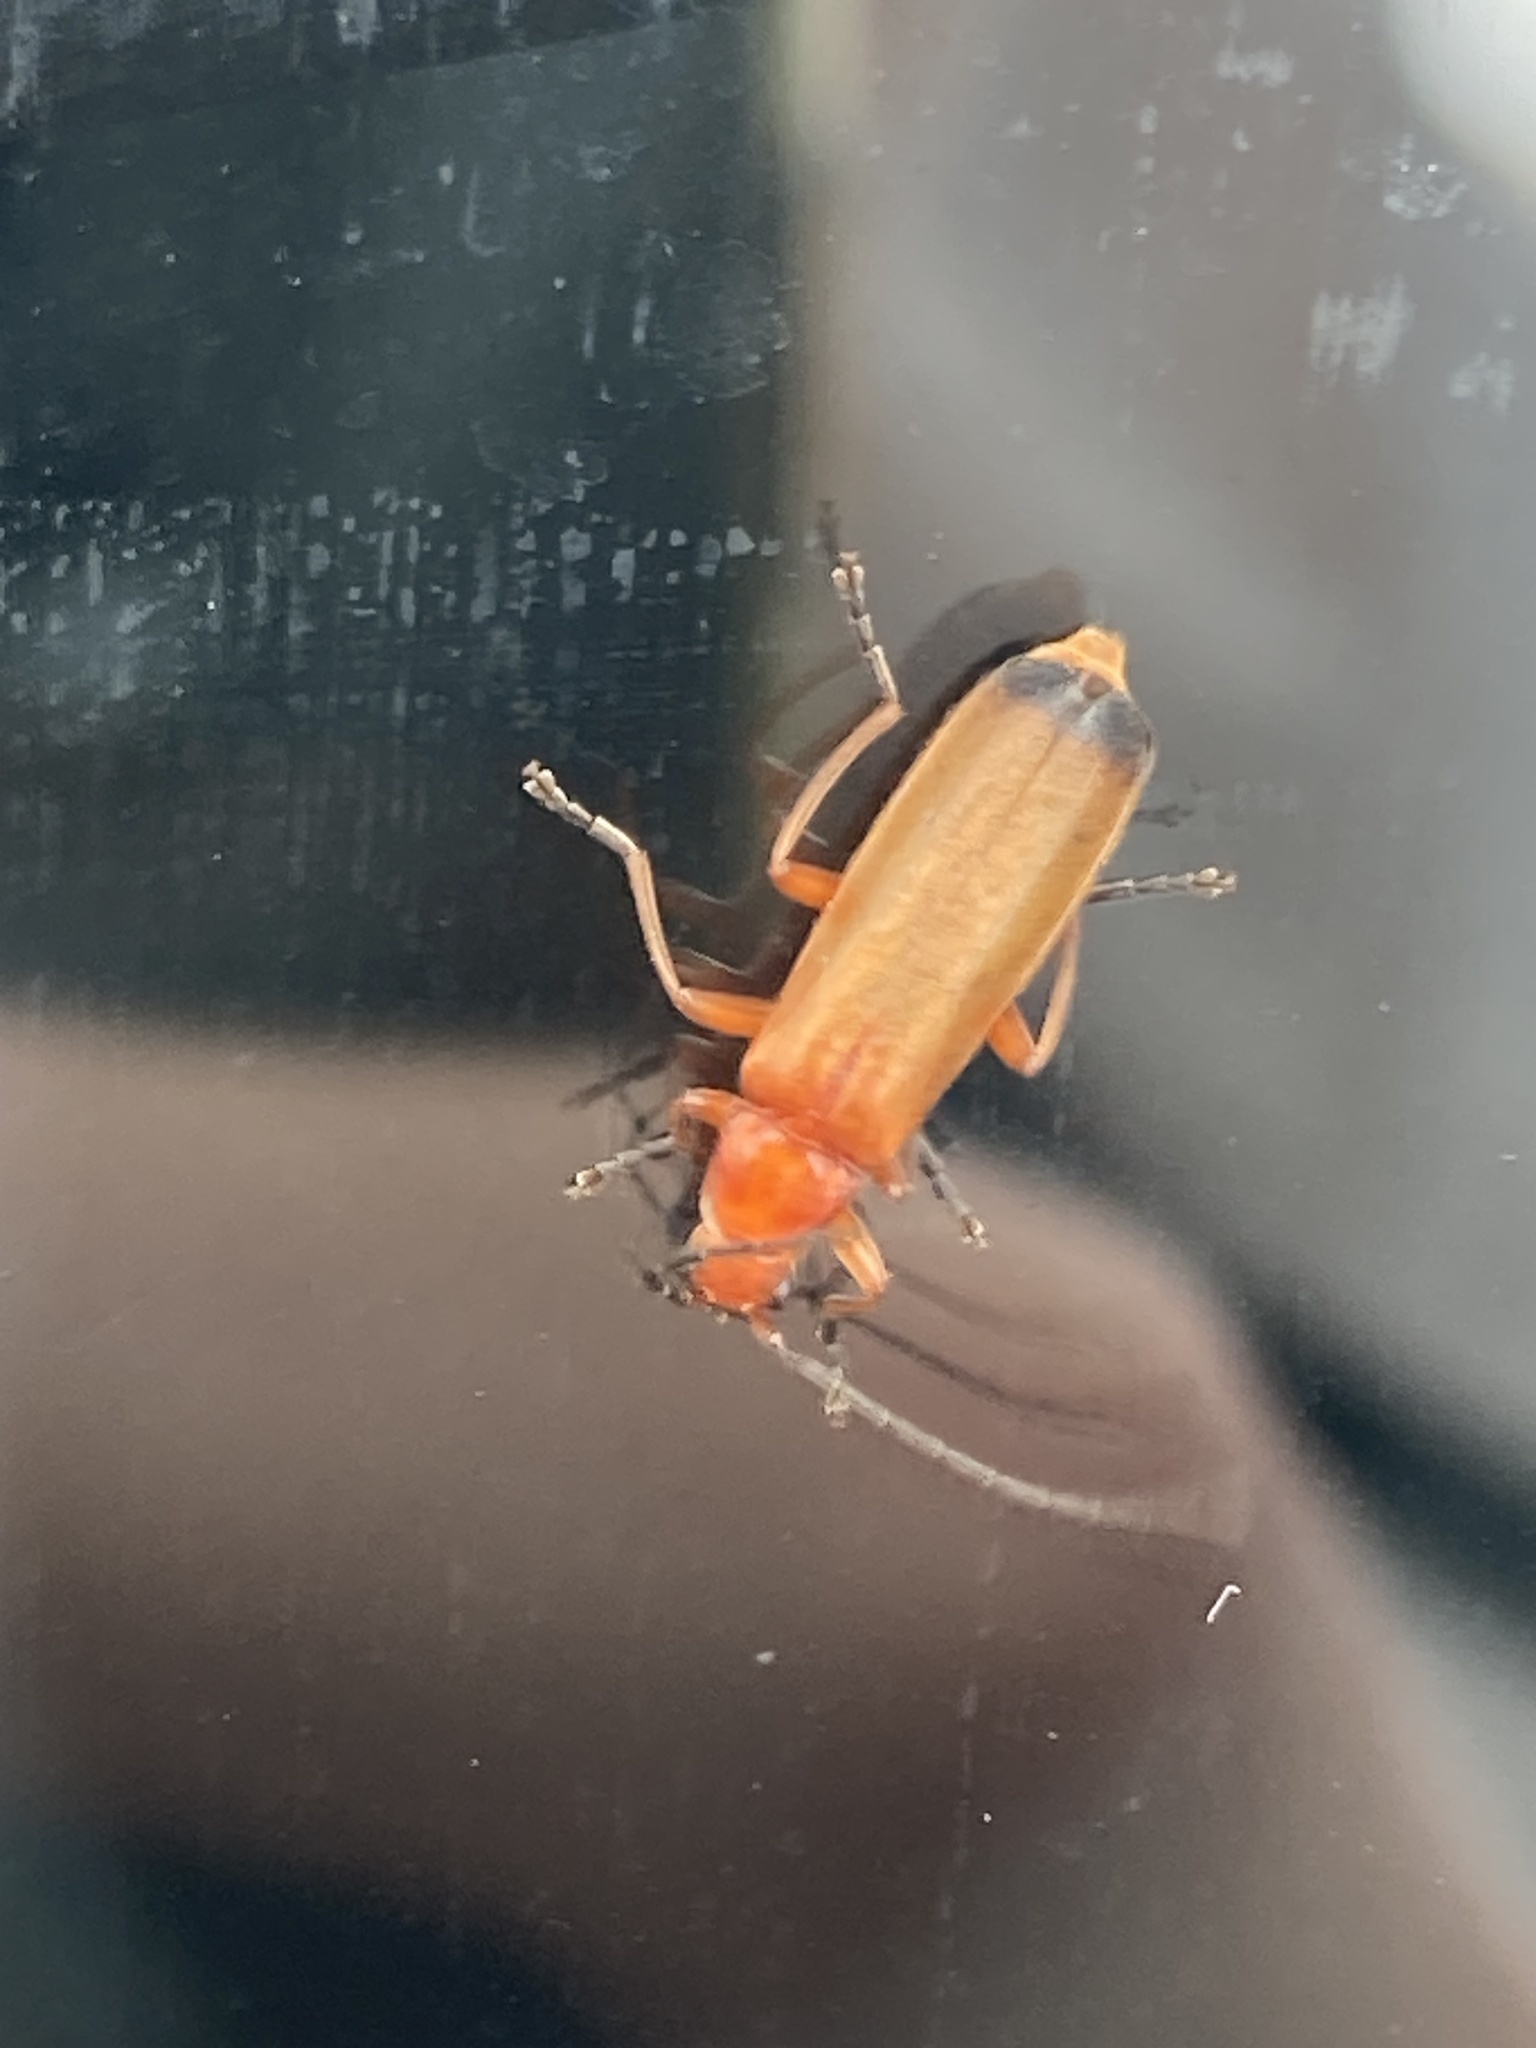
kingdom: Animalia
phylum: Arthropoda
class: Insecta
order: Coleoptera
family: Cantharidae
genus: Rhagonycha
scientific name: Rhagonycha fulva
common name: Common red soldier beetle
